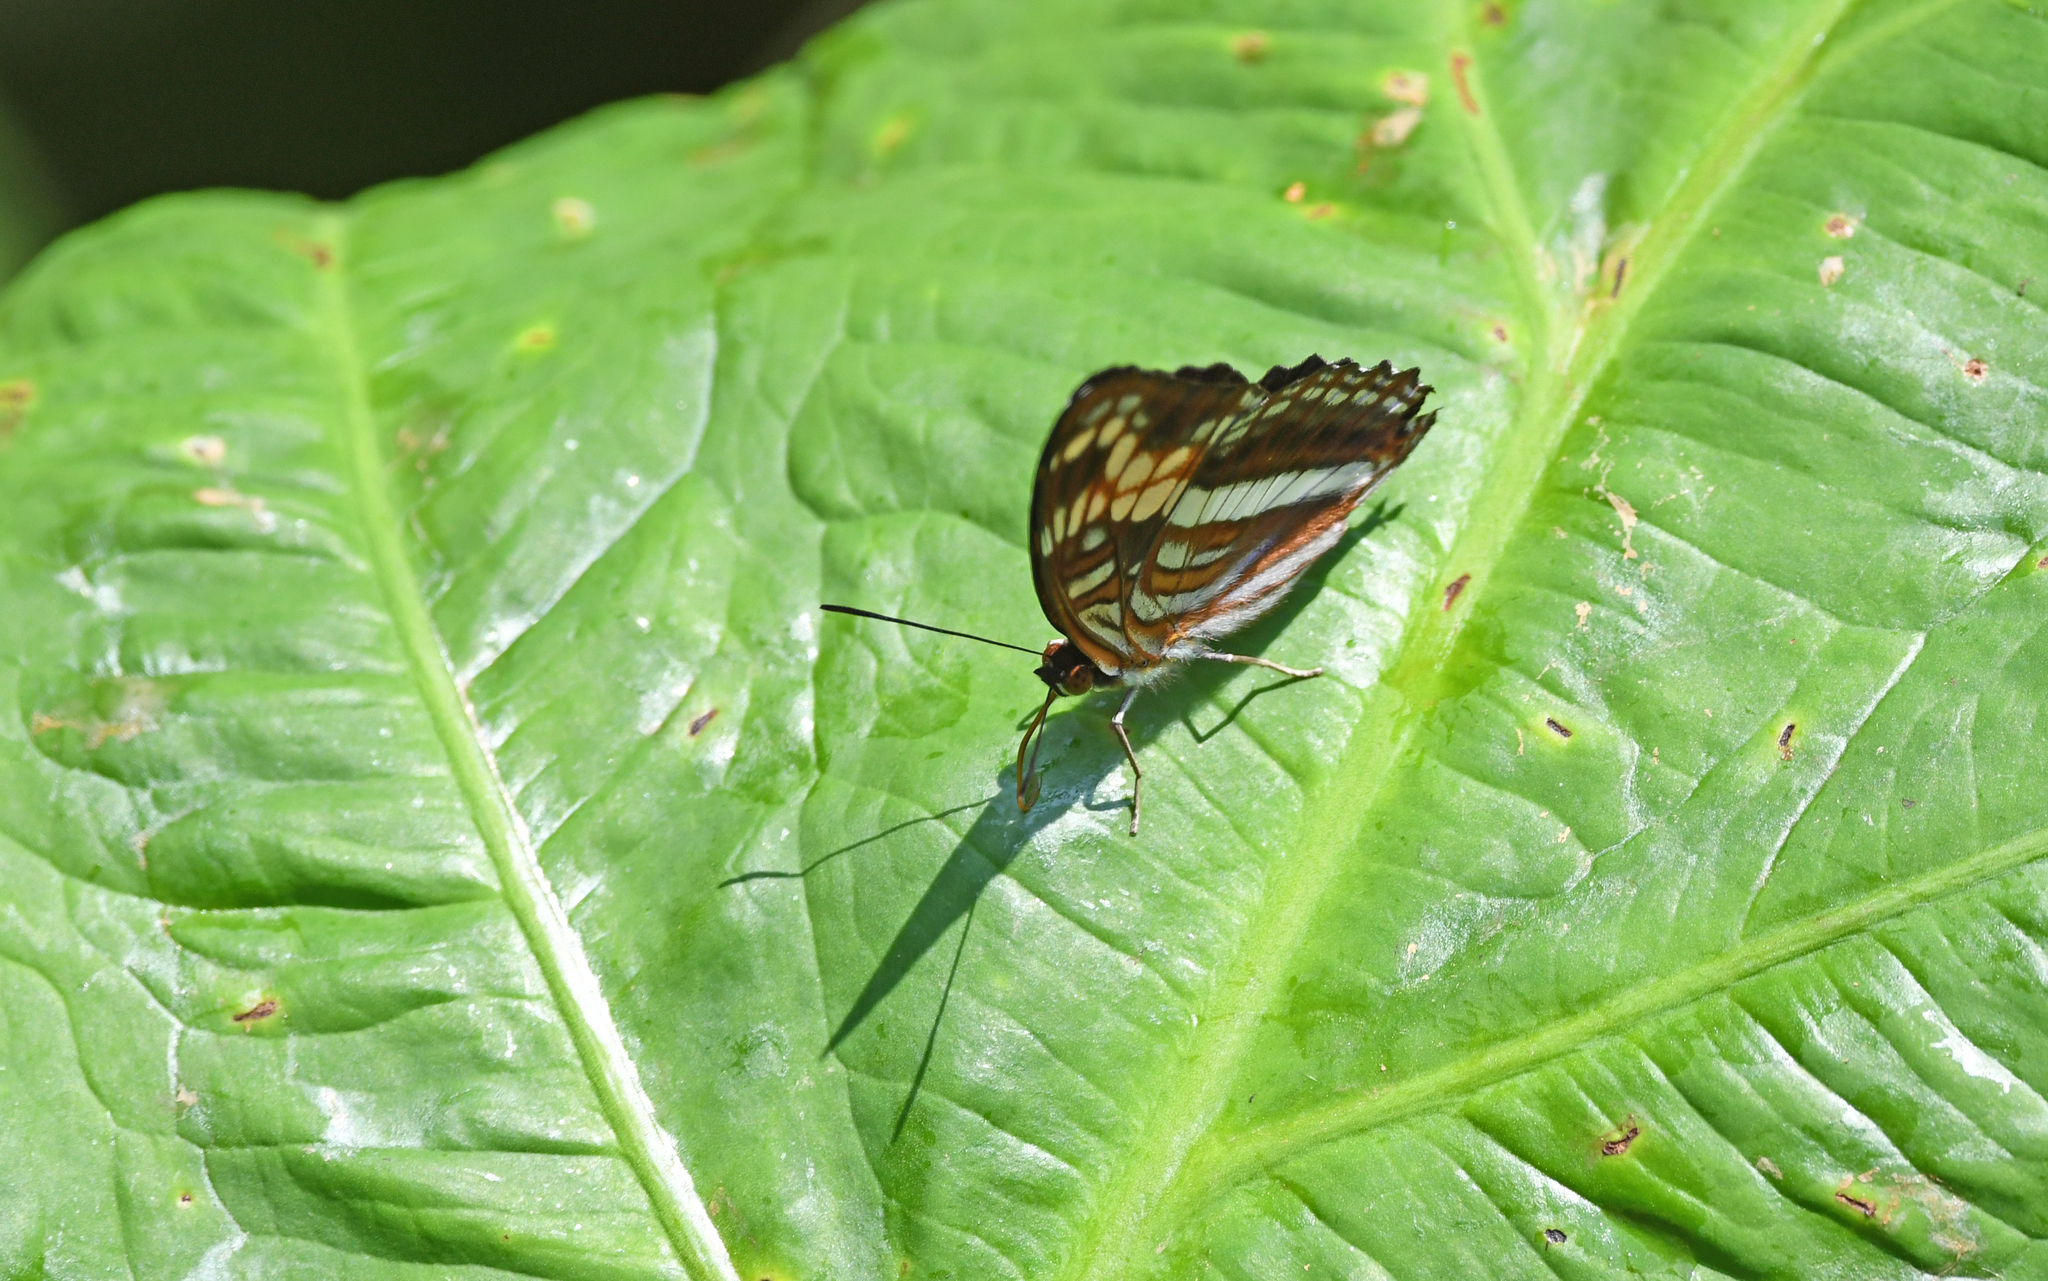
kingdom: Animalia
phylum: Arthropoda
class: Insecta
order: Lepidoptera
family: Nymphalidae
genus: Limenitis
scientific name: Limenitis sichaeus
